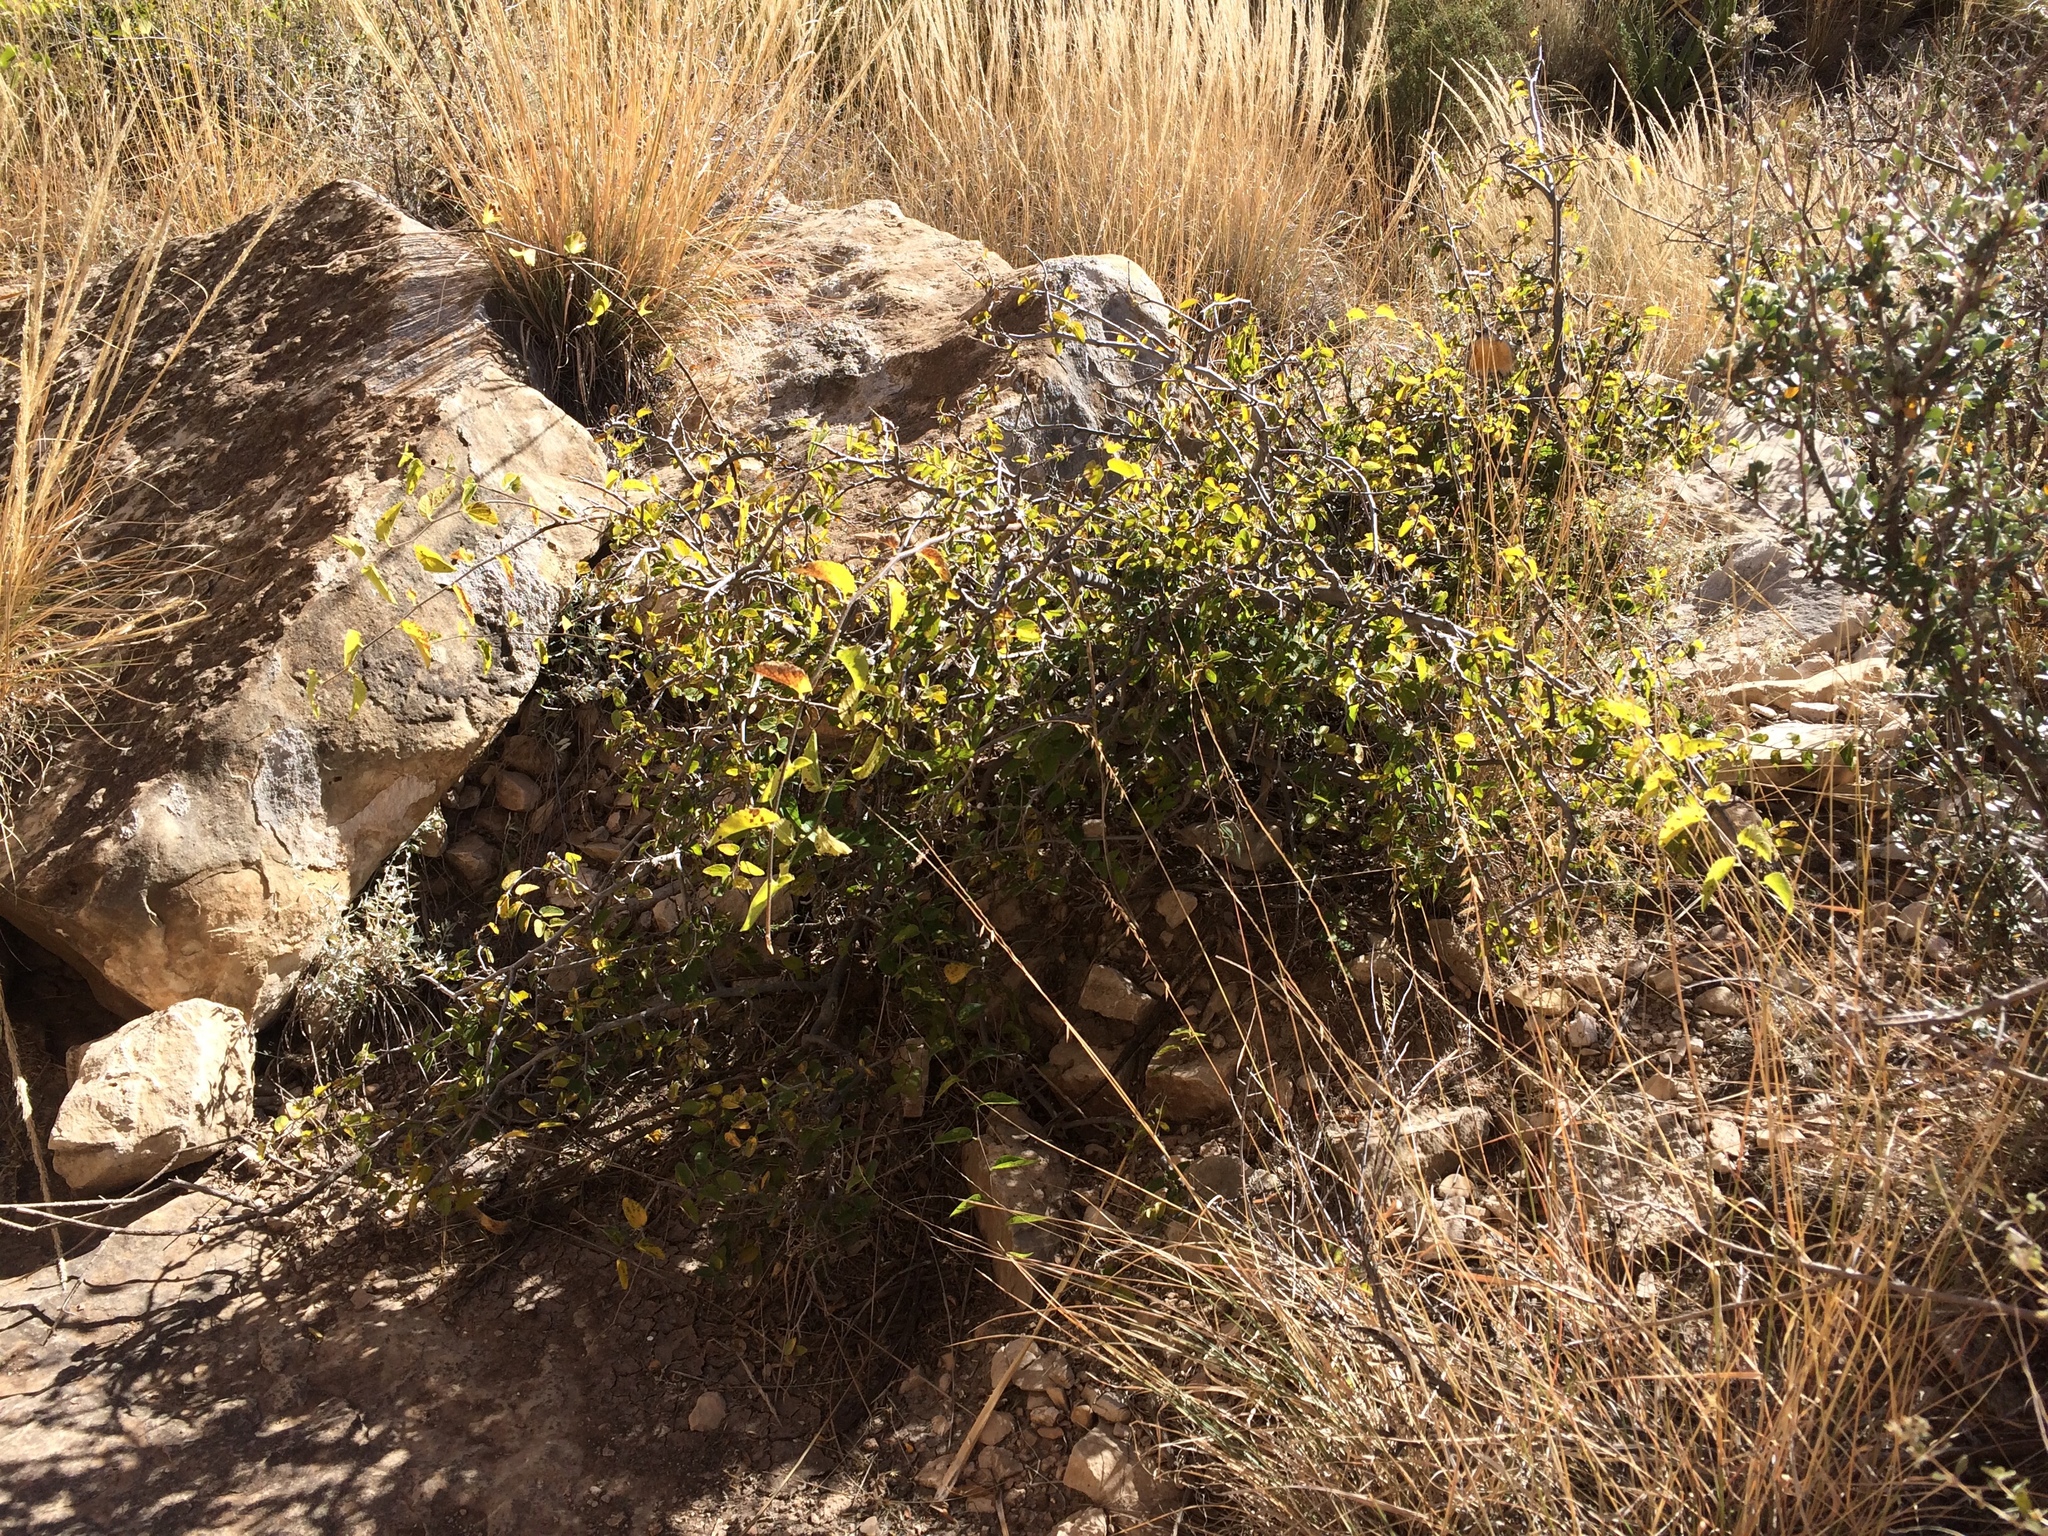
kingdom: Plantae
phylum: Tracheophyta
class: Magnoliopsida
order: Rosales
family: Cannabaceae
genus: Celtis
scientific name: Celtis reticulata
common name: Netleaf hackberry
